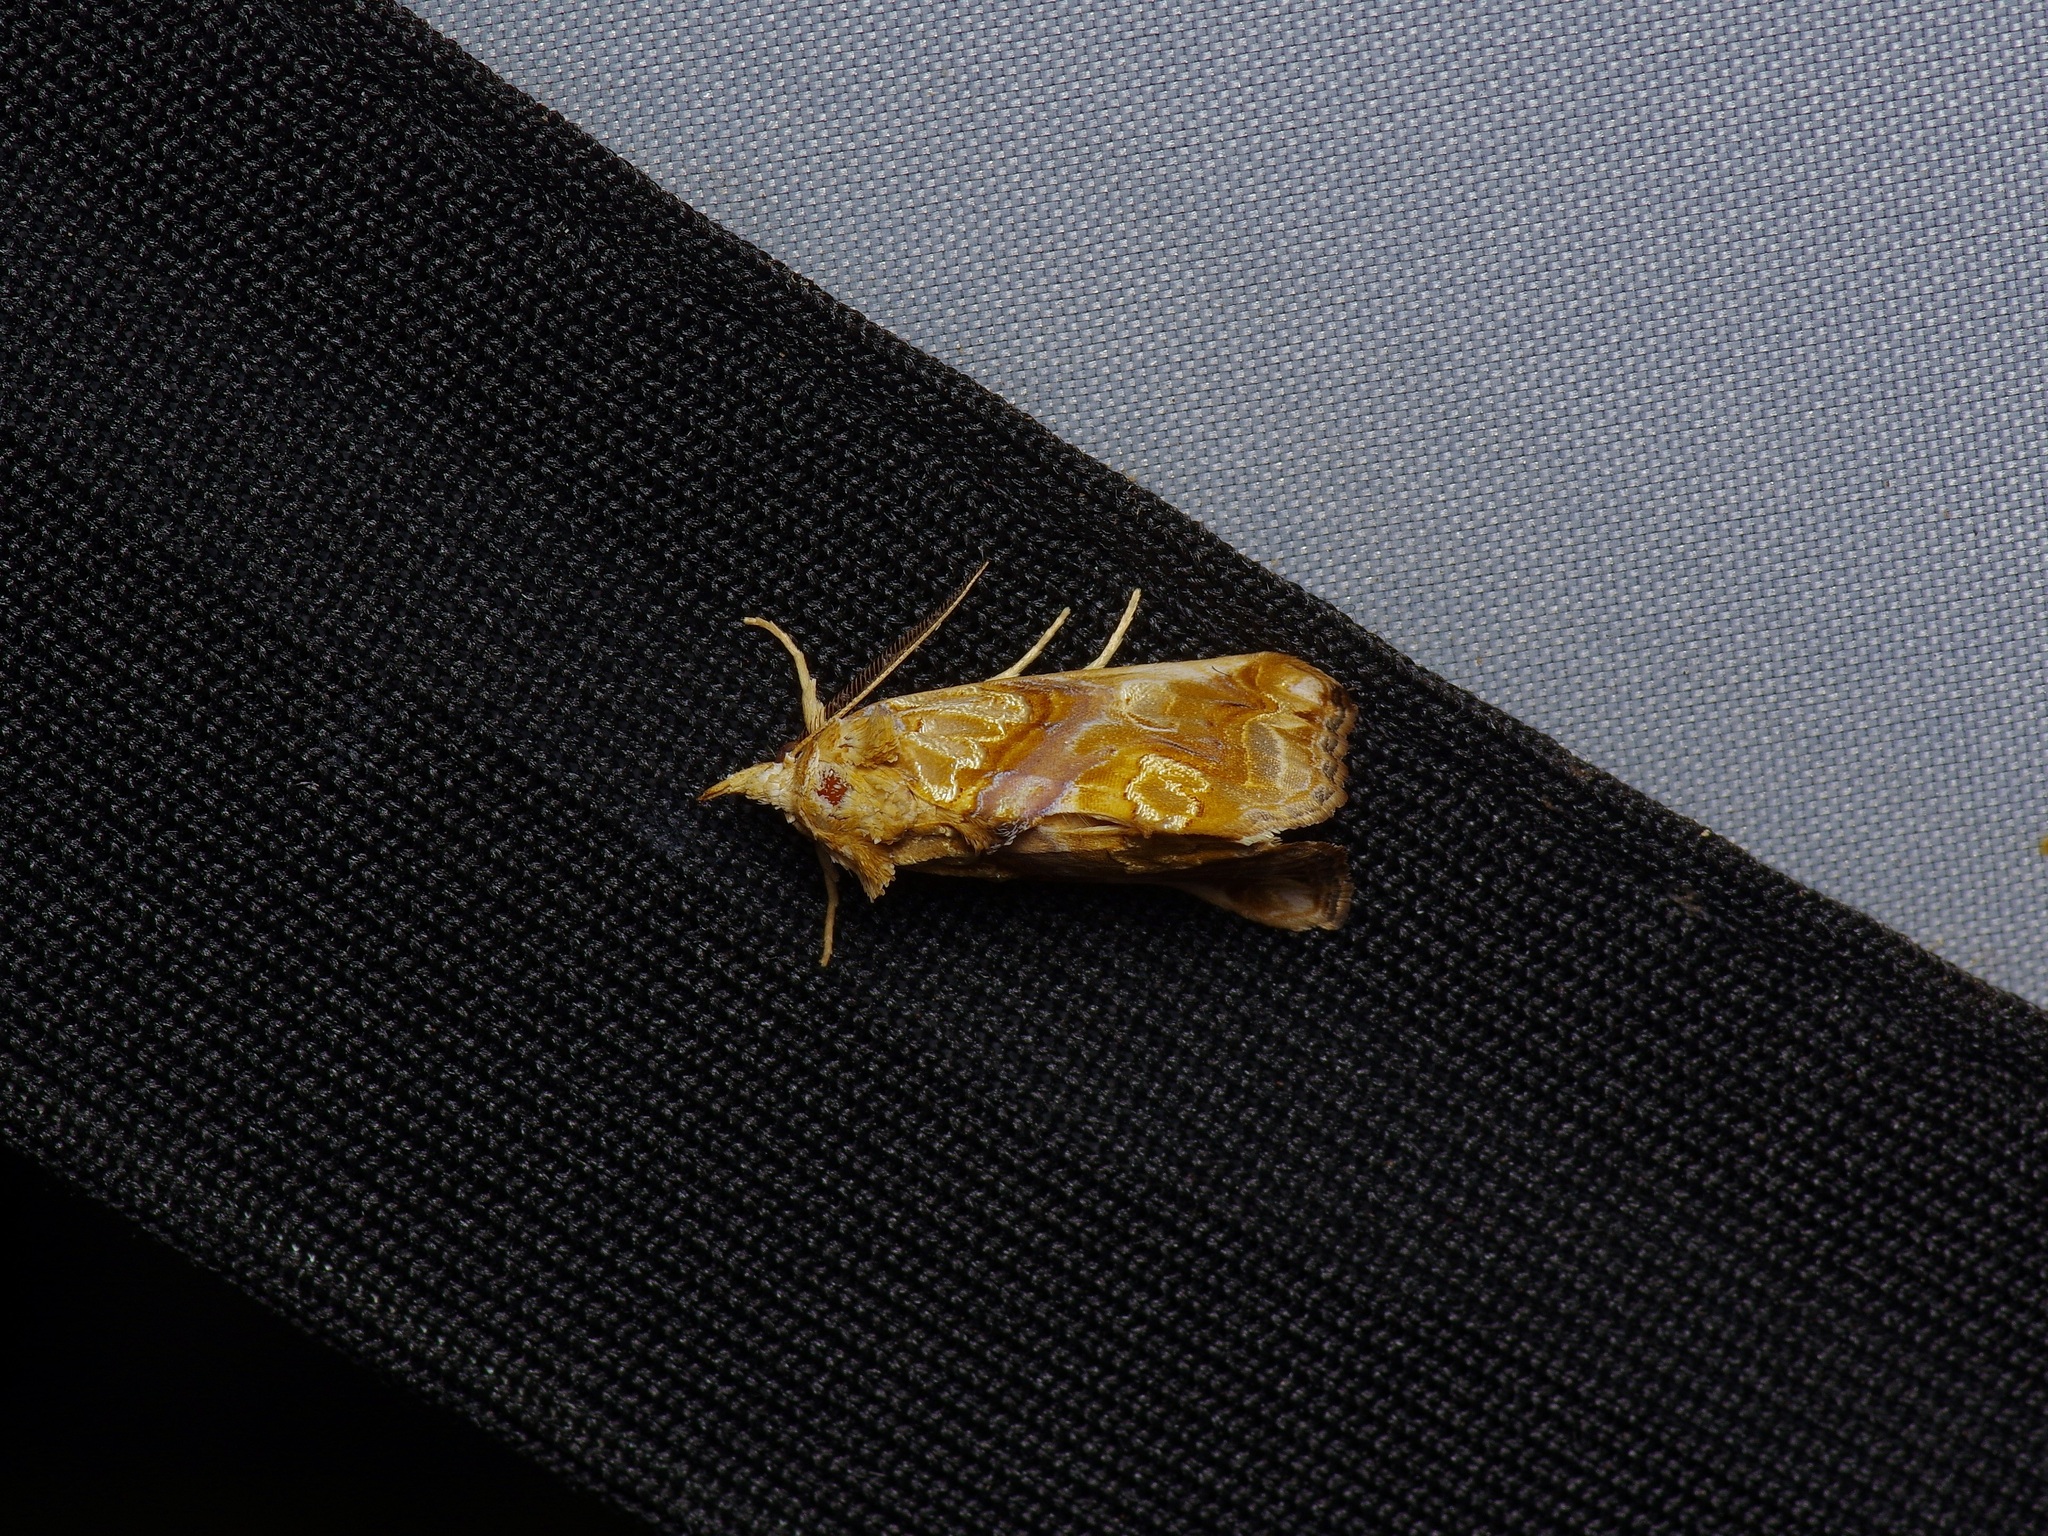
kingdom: Animalia
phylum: Arthropoda
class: Insecta
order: Lepidoptera
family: Erebidae
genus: Plusiodonta
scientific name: Plusiodonta compressipalpis
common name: Moonseed moth
